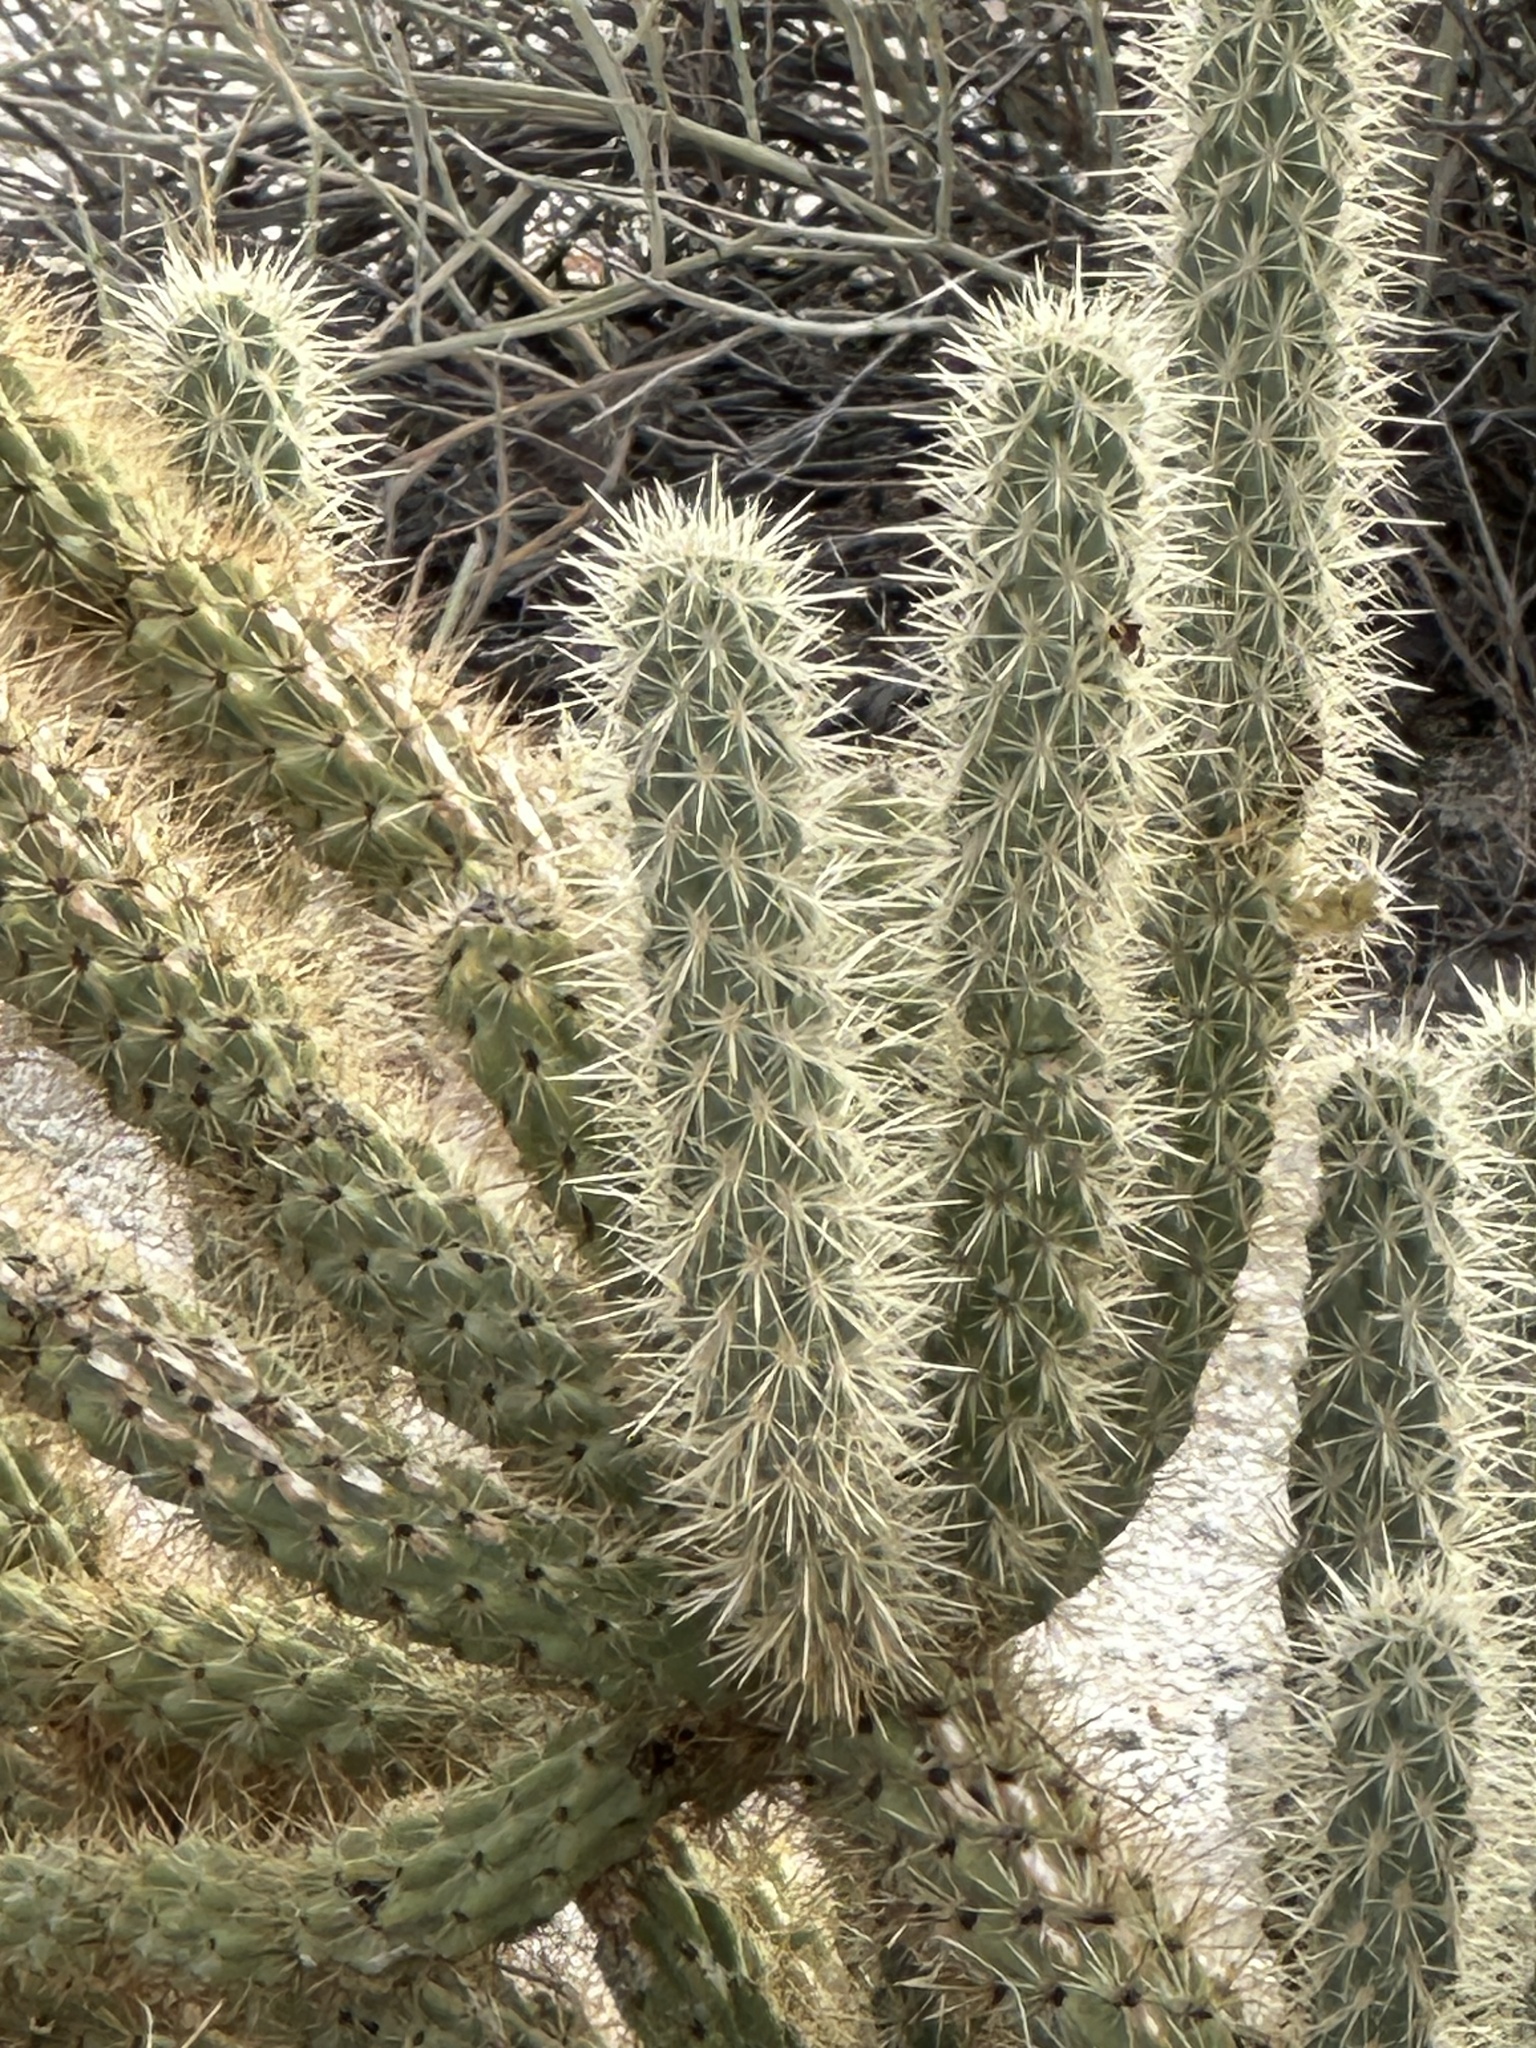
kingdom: Plantae
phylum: Tracheophyta
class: Magnoliopsida
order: Caryophyllales
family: Cactaceae
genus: Cylindropuntia
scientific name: Cylindropuntia ganderi
